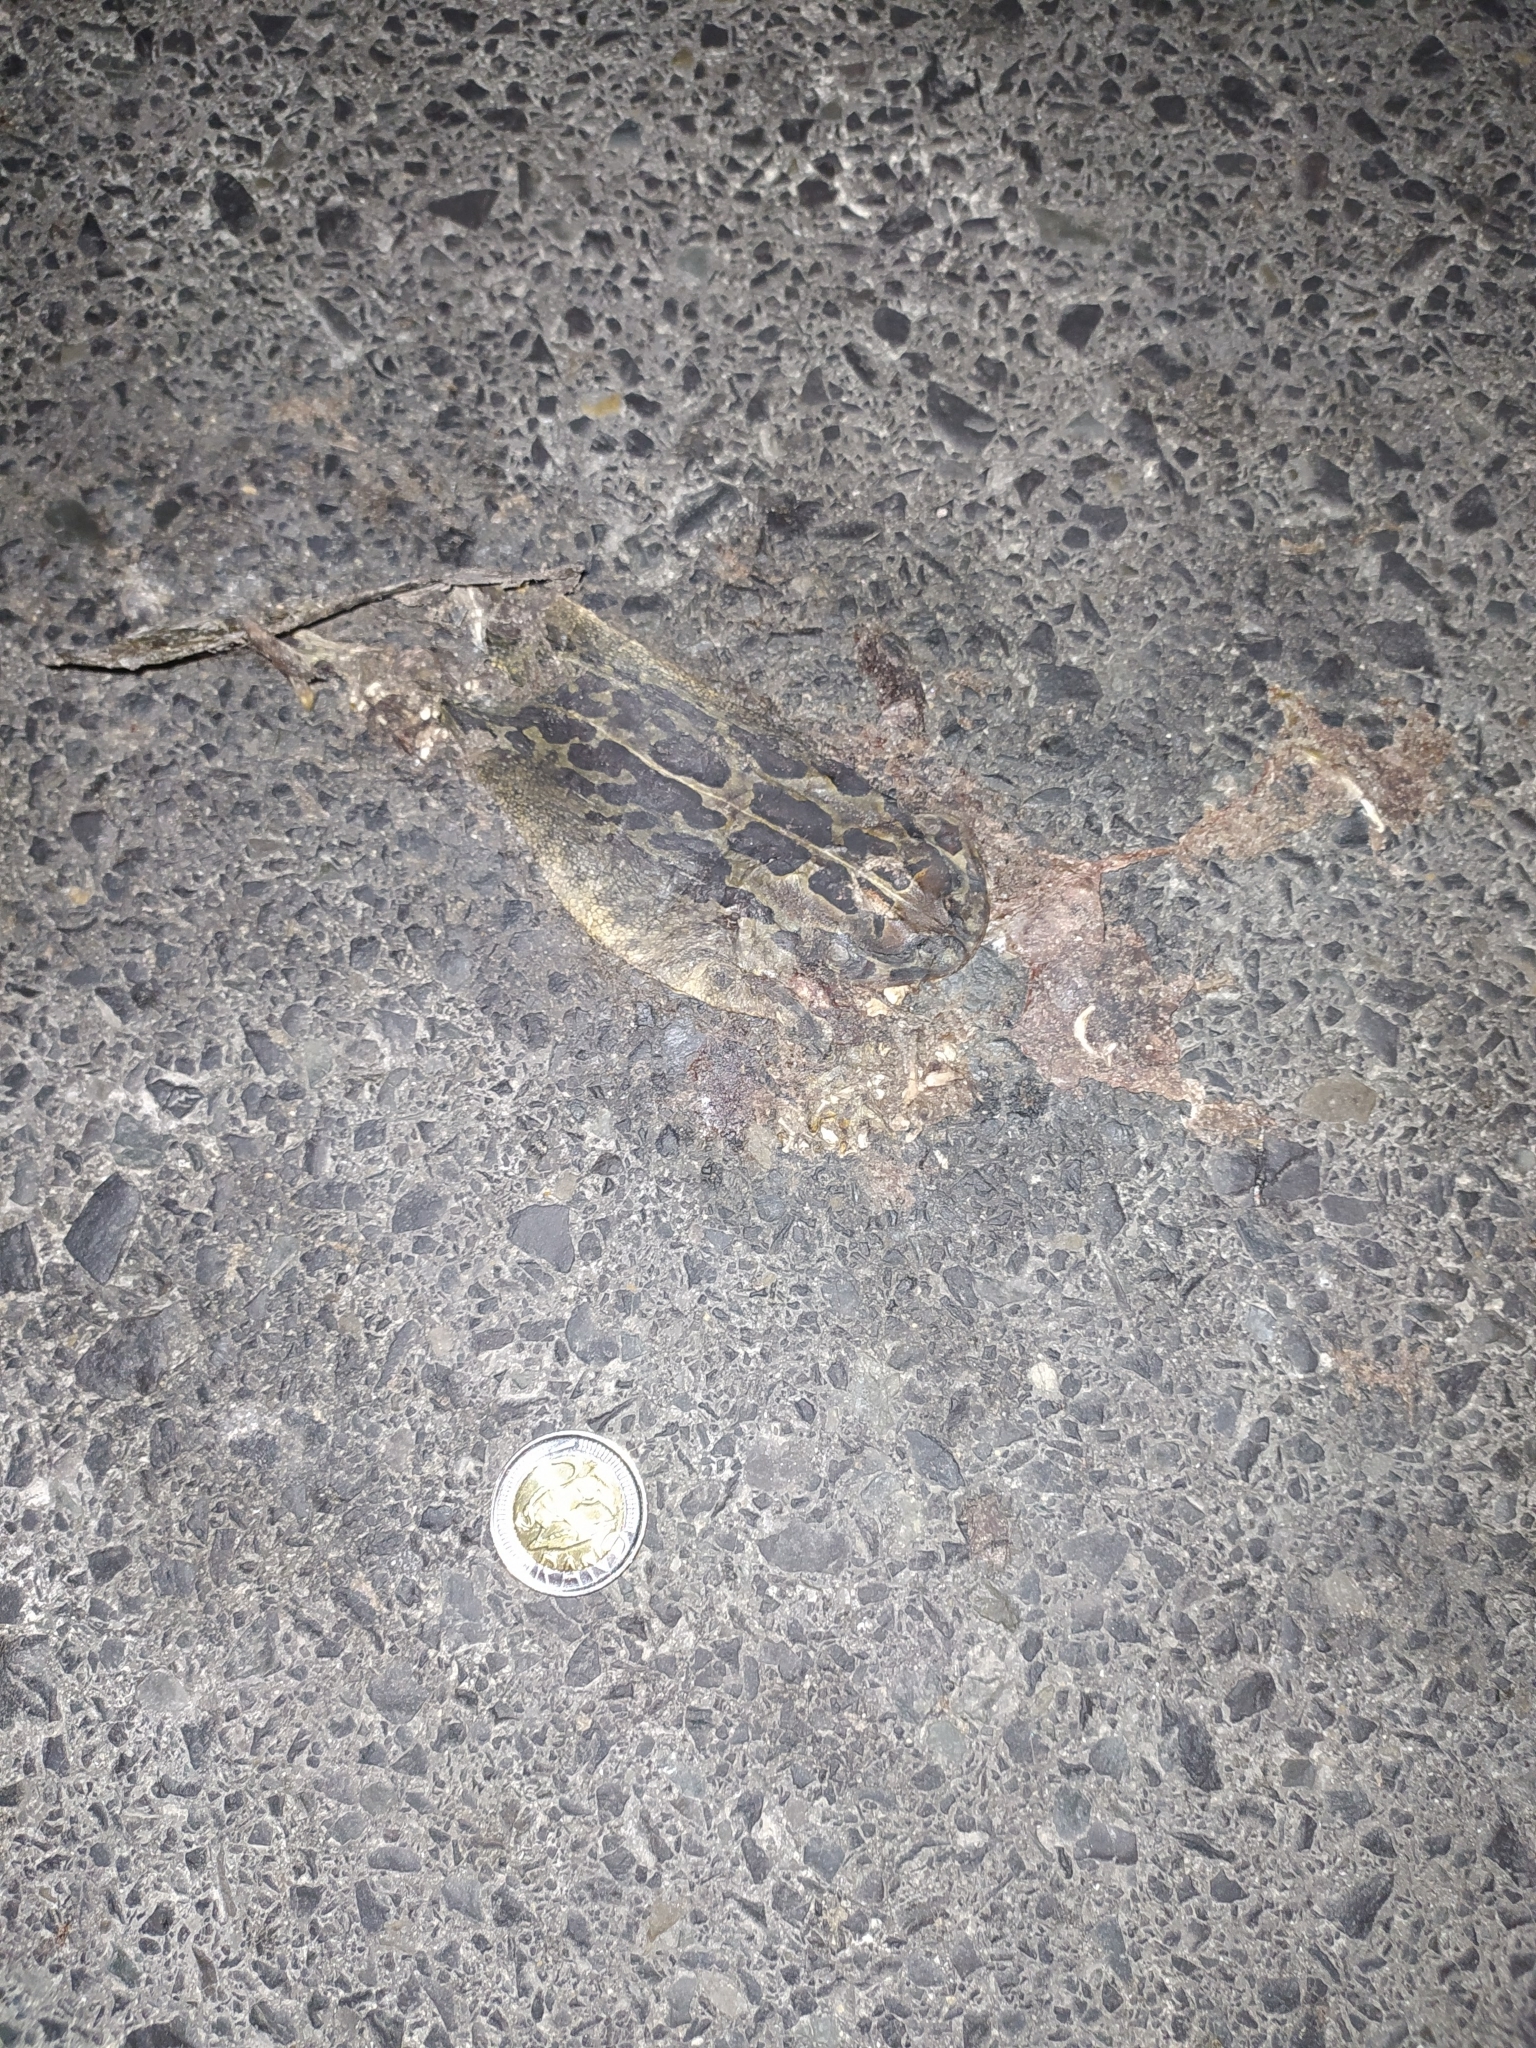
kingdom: Animalia
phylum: Chordata
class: Amphibia
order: Anura
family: Bufonidae
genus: Sclerophrys
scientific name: Sclerophrys pantherina
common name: Panther toad
